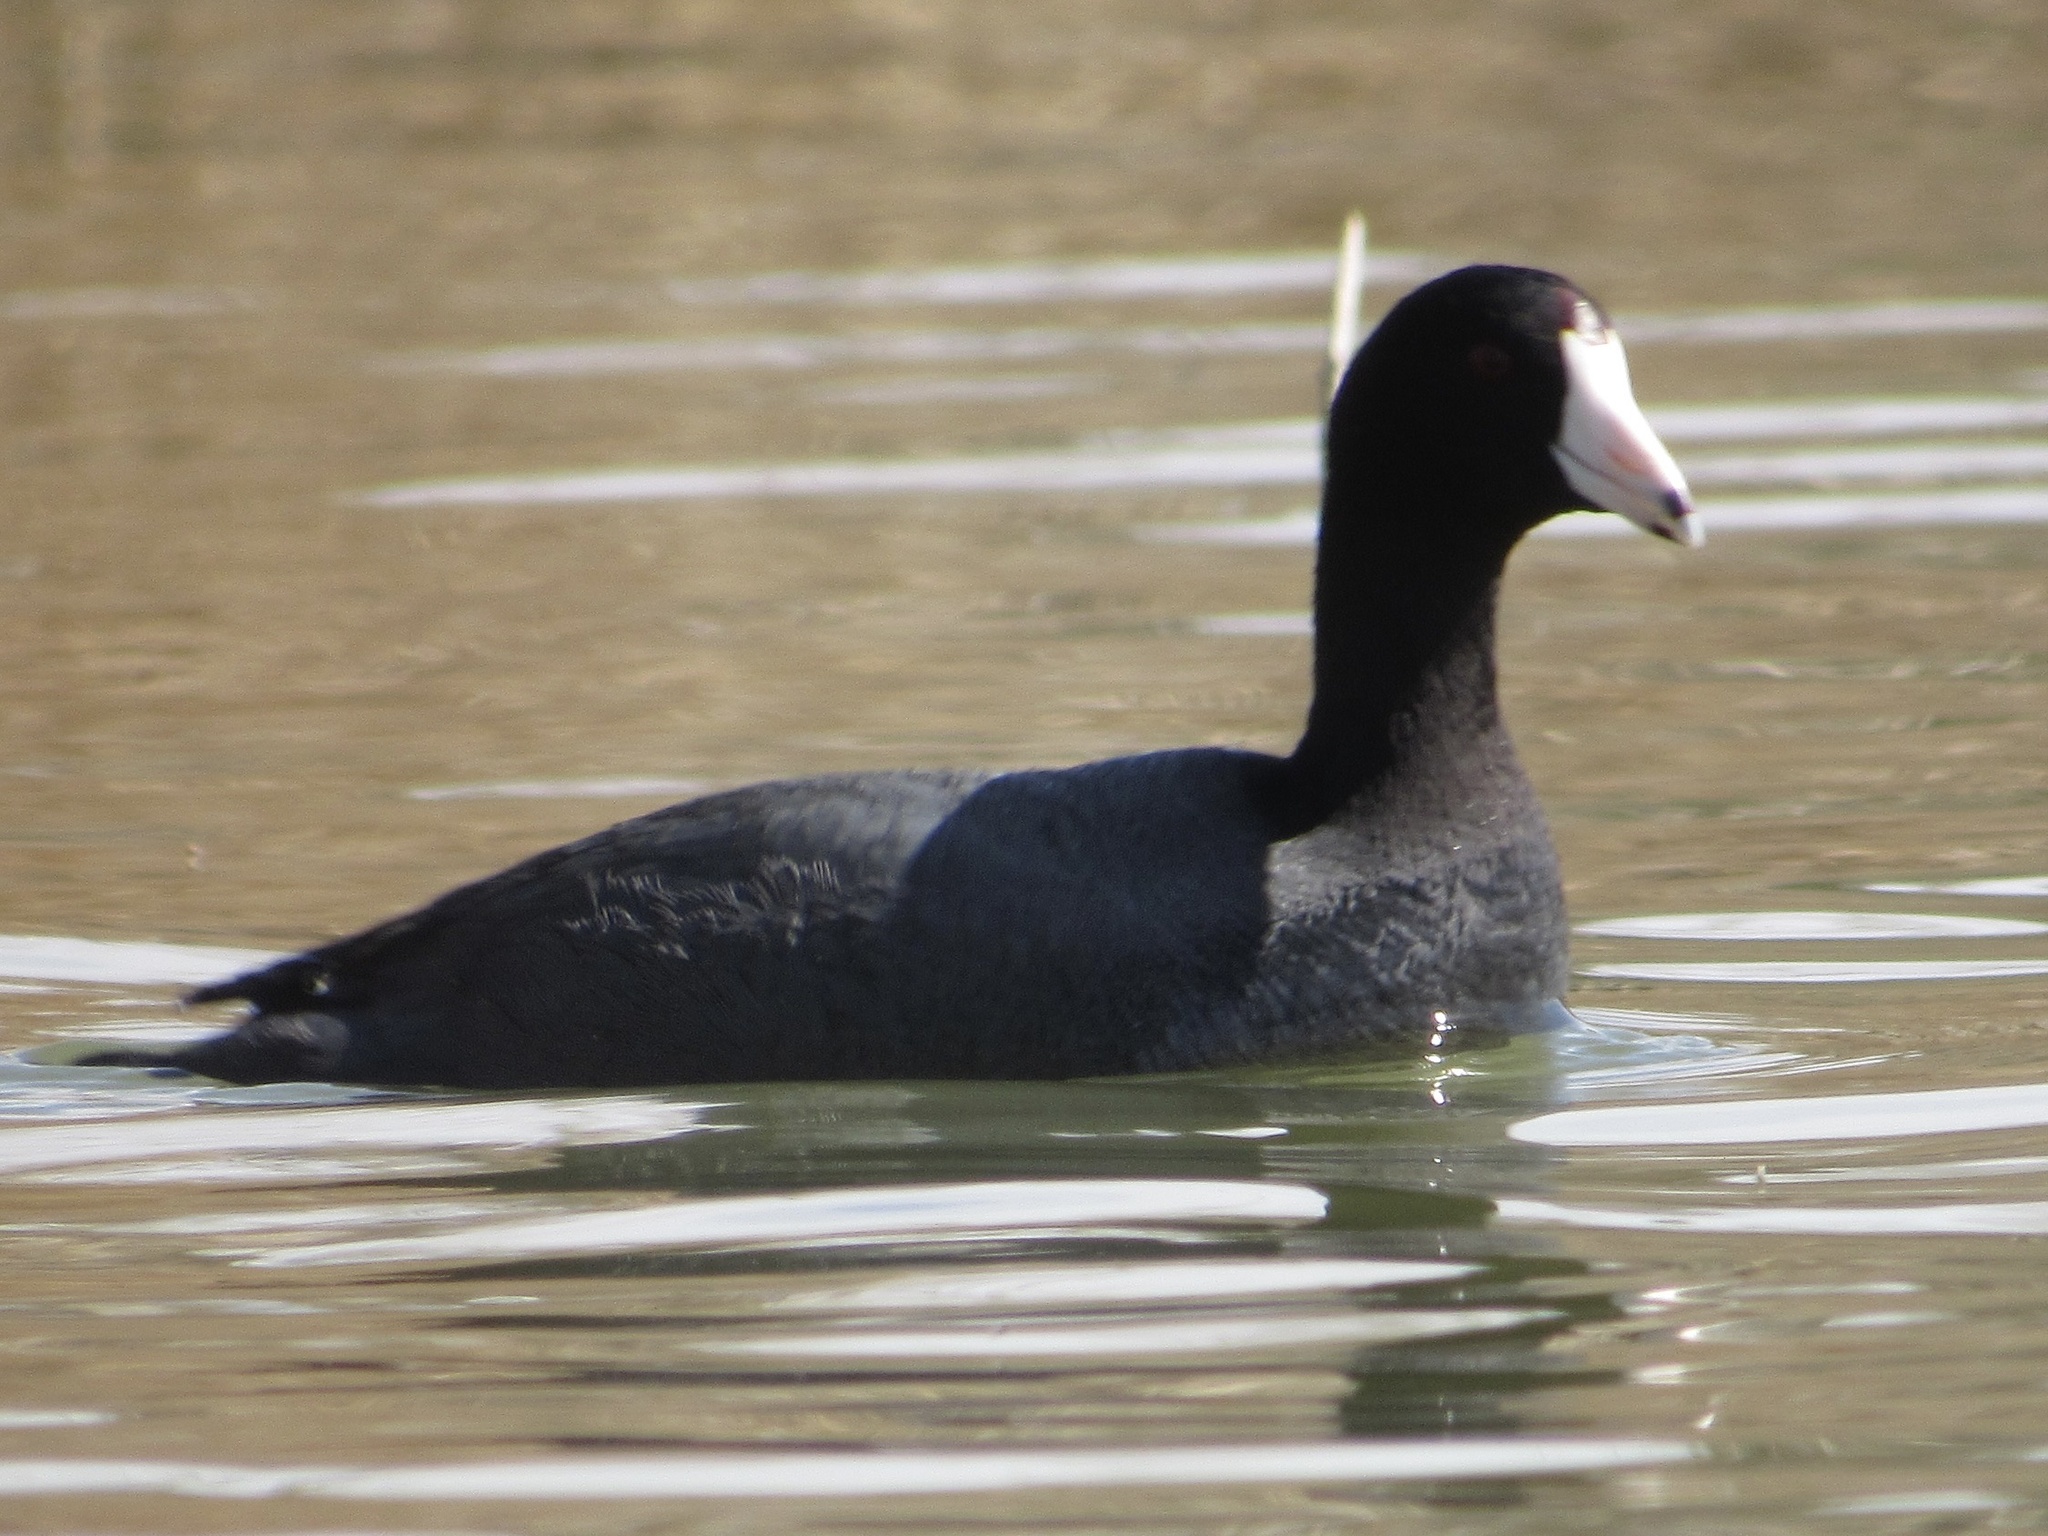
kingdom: Animalia
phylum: Chordata
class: Aves
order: Gruiformes
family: Rallidae
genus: Fulica
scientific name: Fulica americana
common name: American coot
